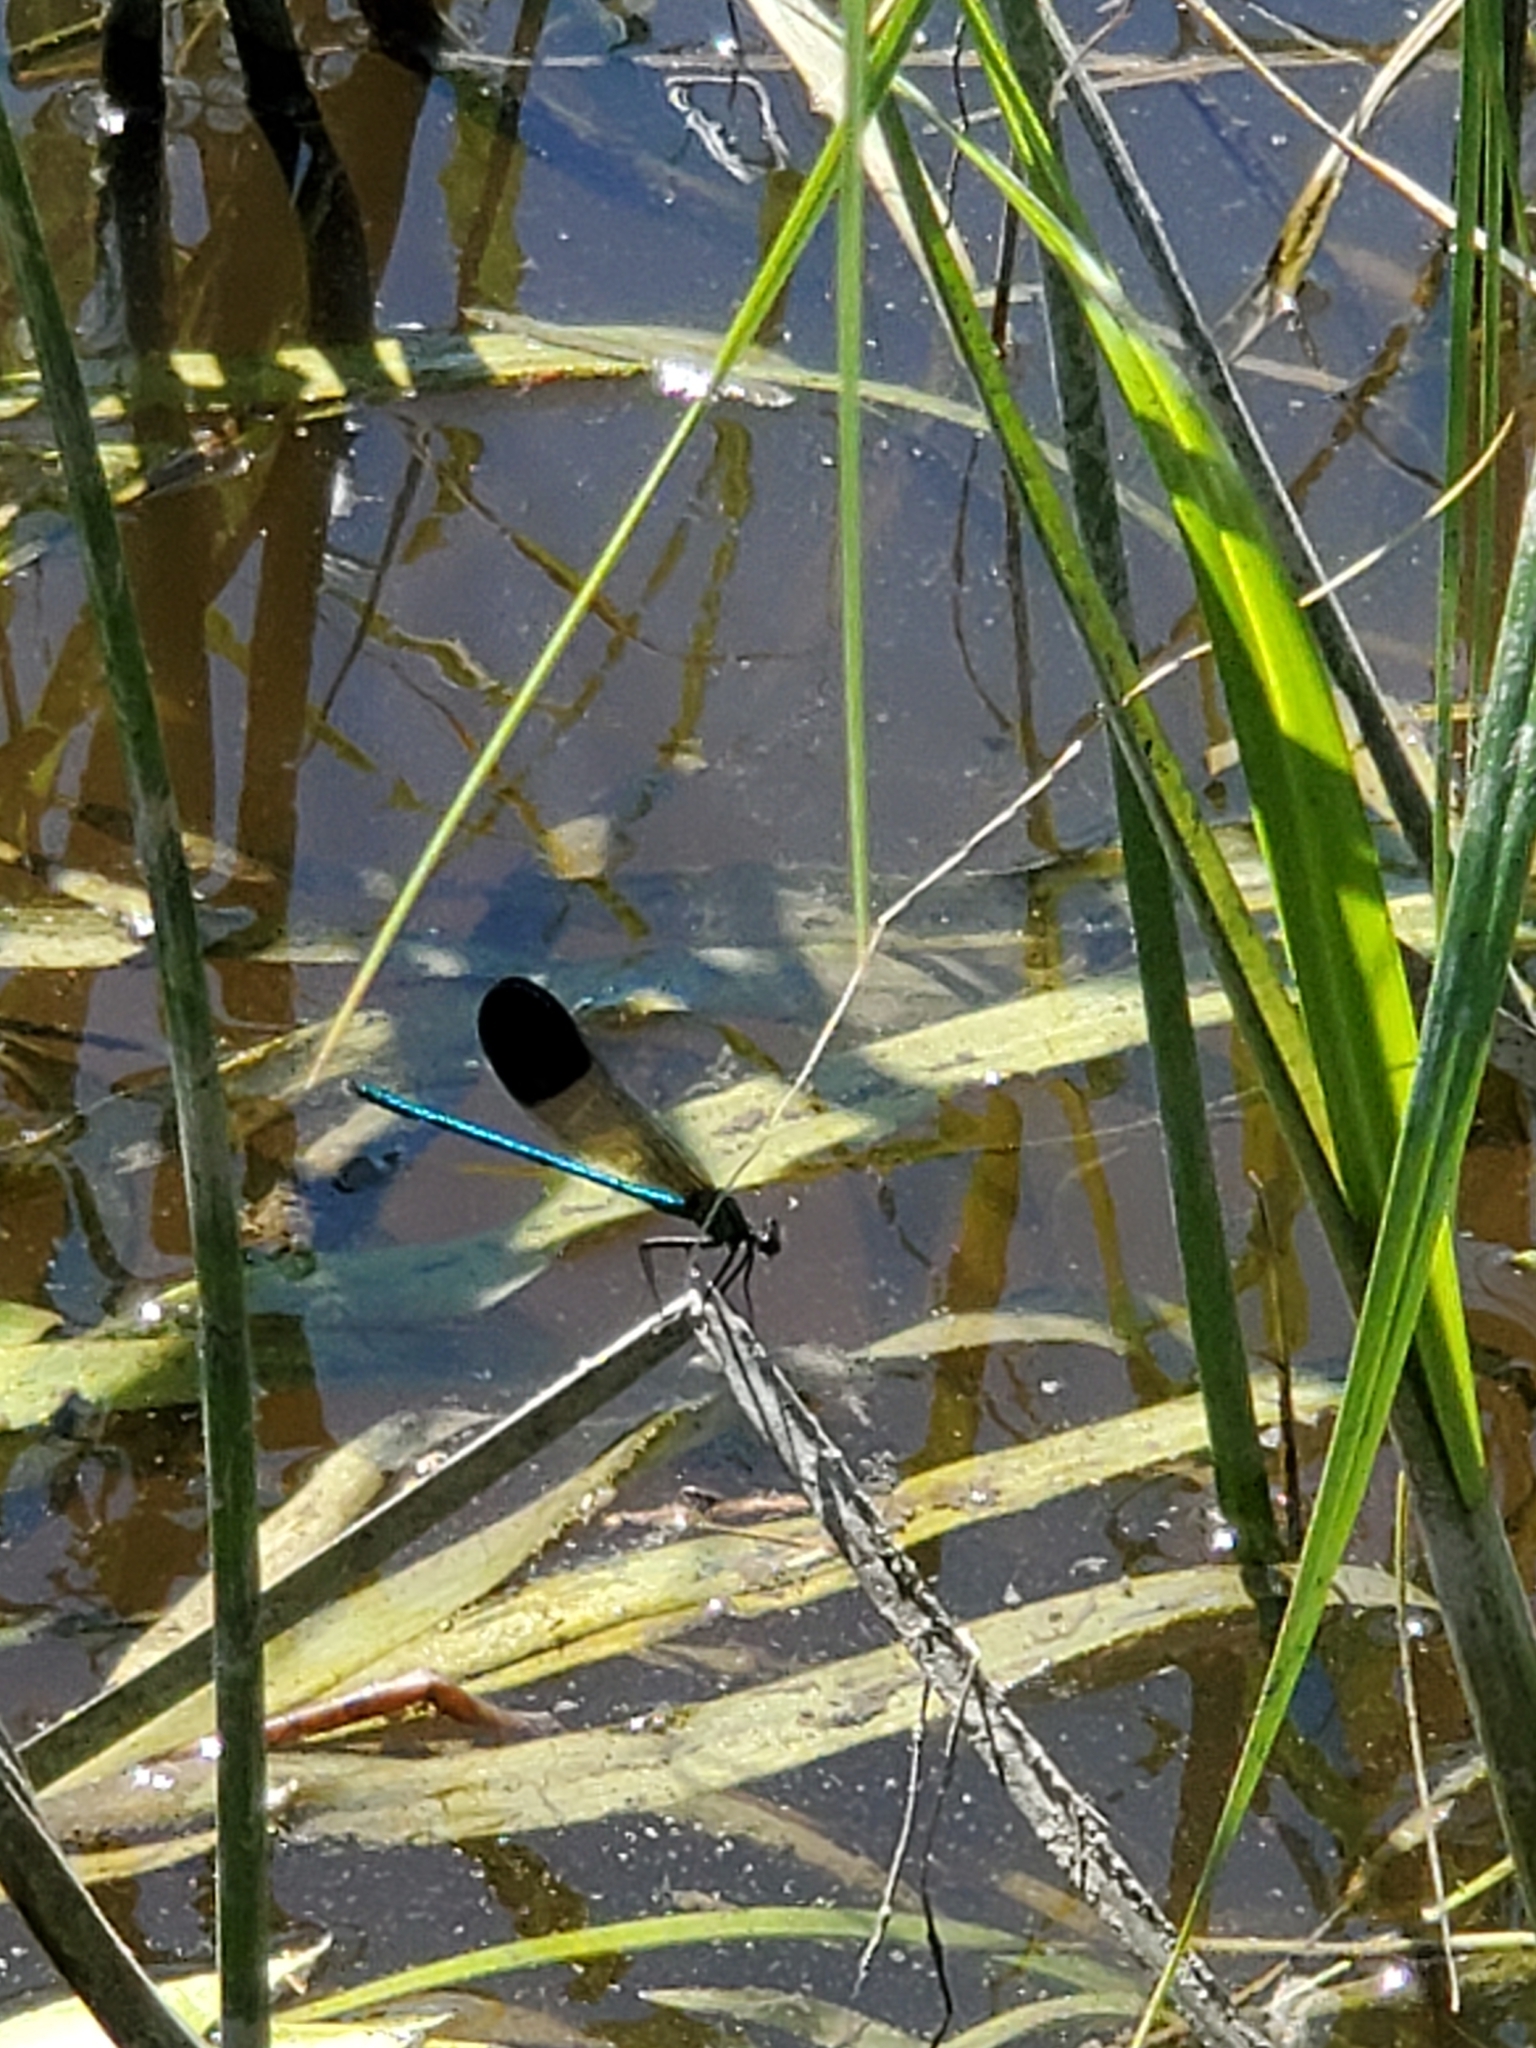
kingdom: Animalia
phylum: Arthropoda
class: Insecta
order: Odonata
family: Calopterygidae
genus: Calopteryx
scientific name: Calopteryx aequabilis
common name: River jewelwing
